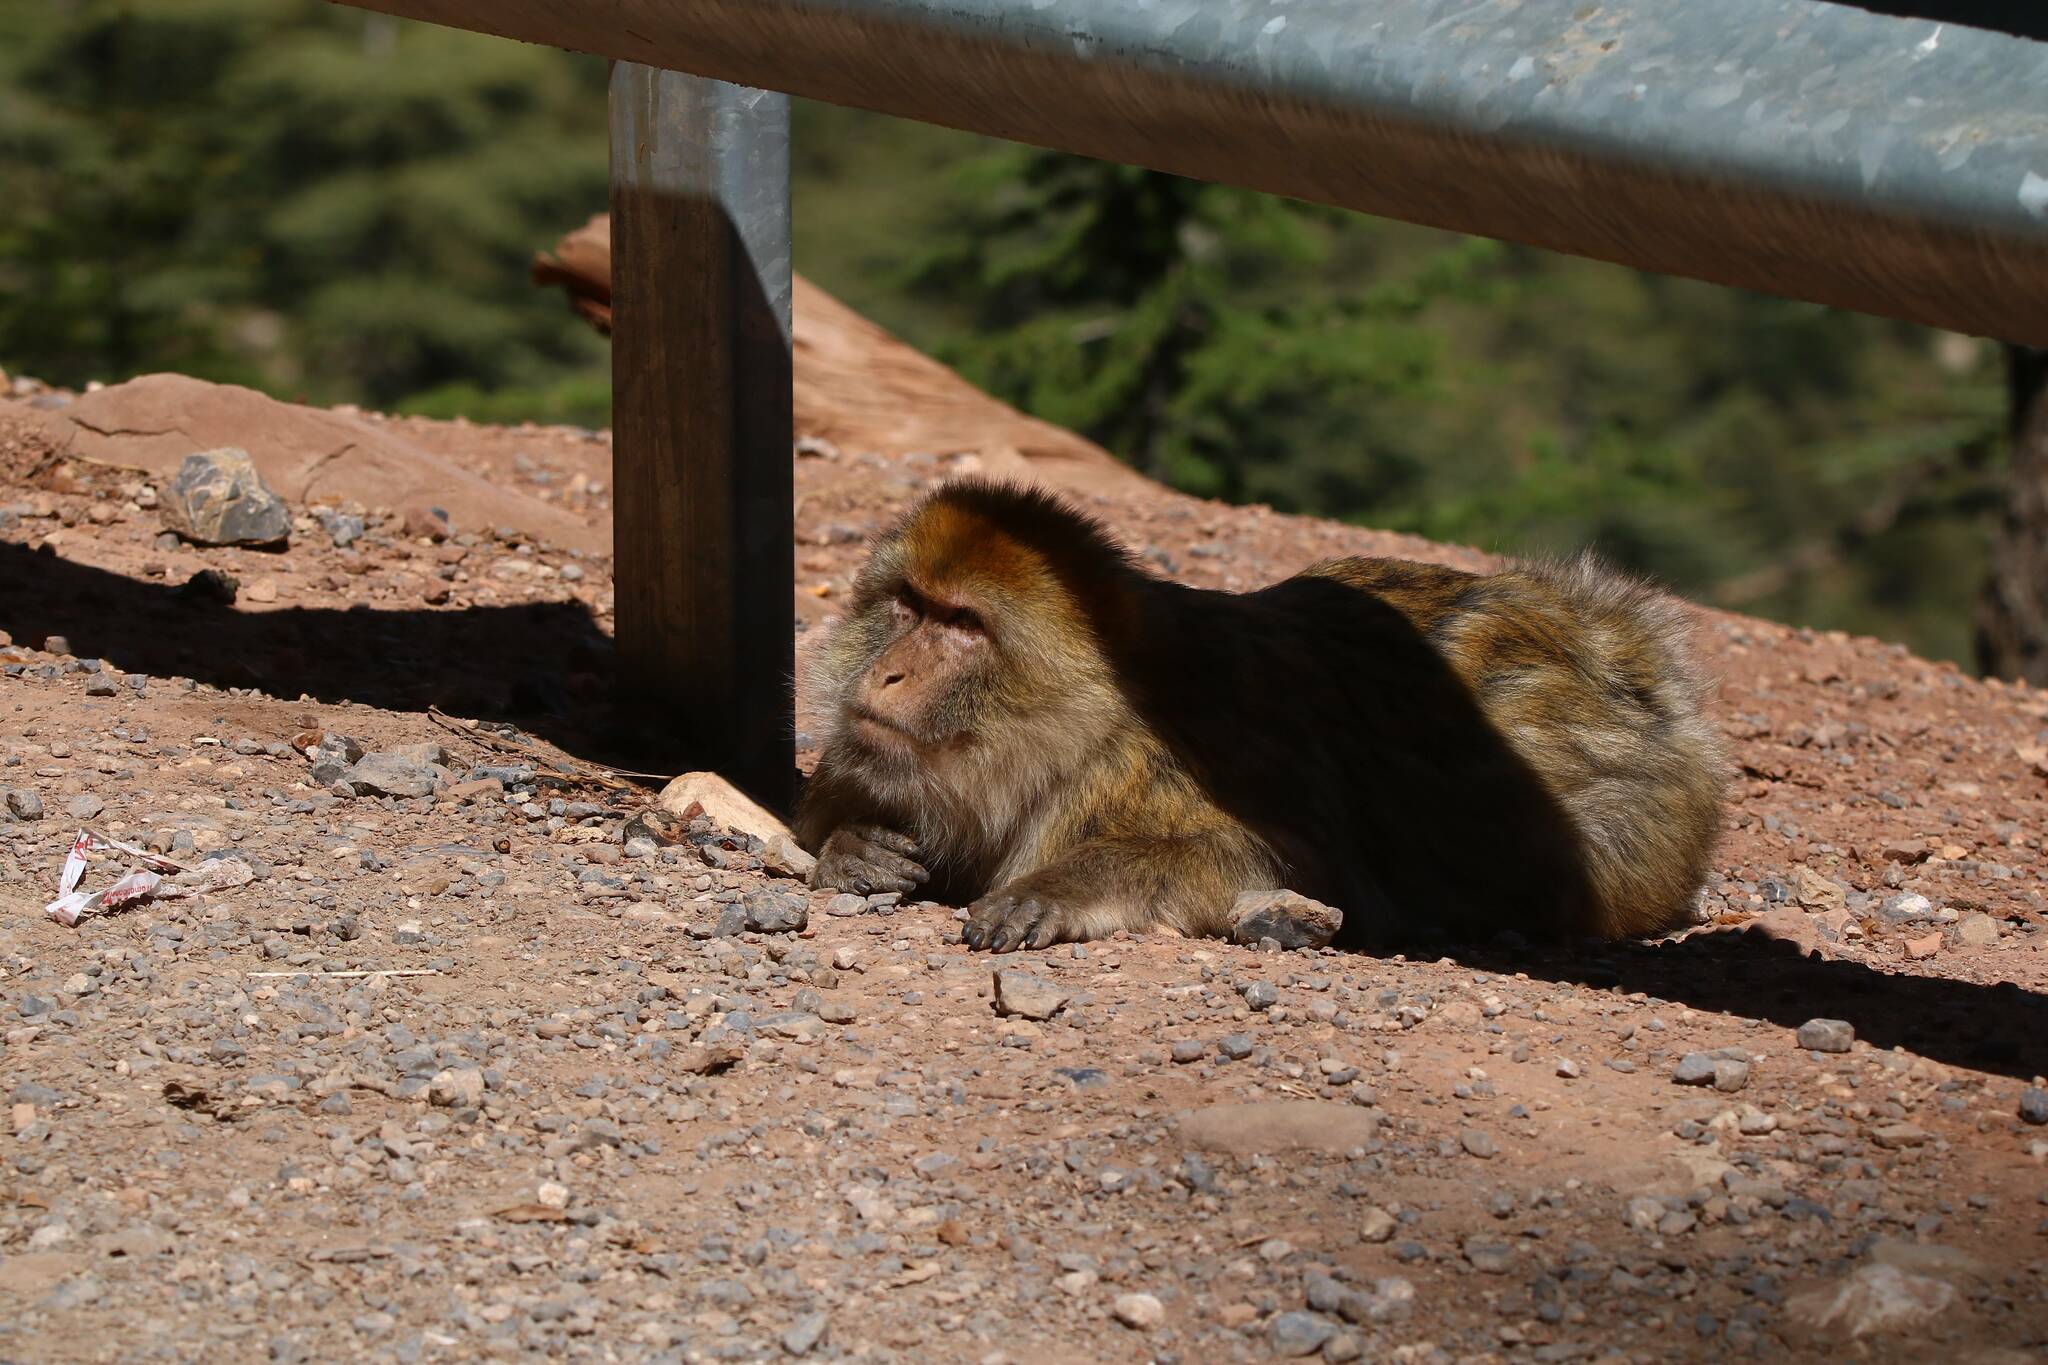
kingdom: Animalia
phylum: Chordata
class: Mammalia
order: Primates
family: Cercopithecidae
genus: Macaca
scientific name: Macaca sylvanus
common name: Barbary macaque
